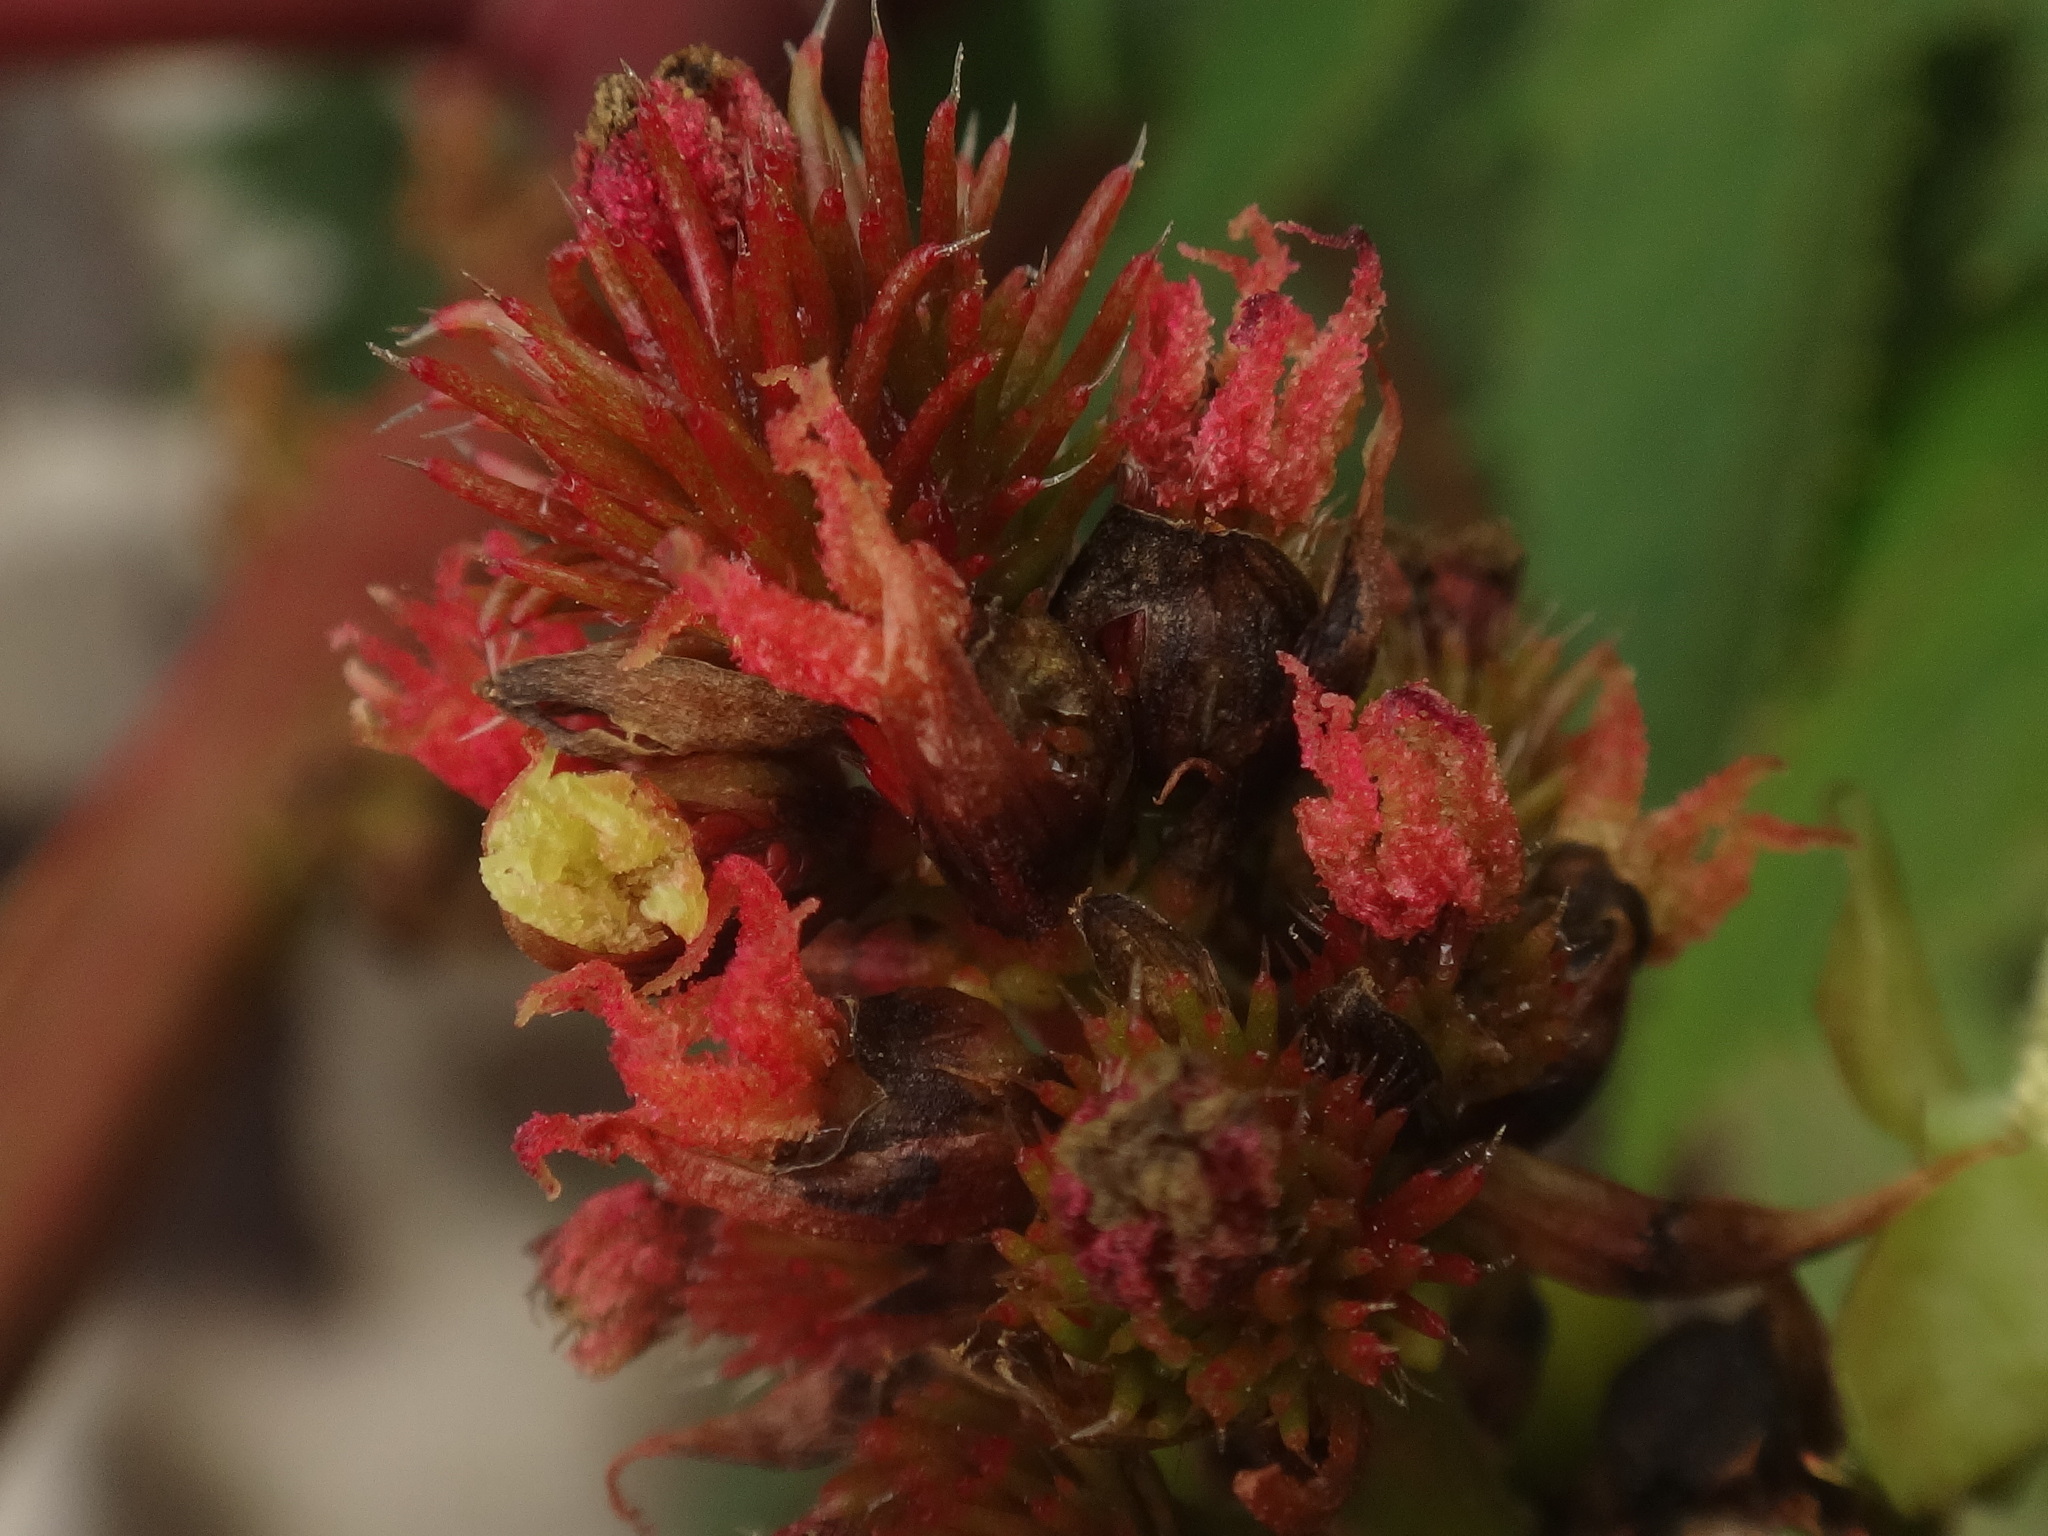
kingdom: Plantae
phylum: Tracheophyta
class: Magnoliopsida
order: Malpighiales
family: Euphorbiaceae
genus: Ricinus
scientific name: Ricinus communis
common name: Castor-oil-plant
